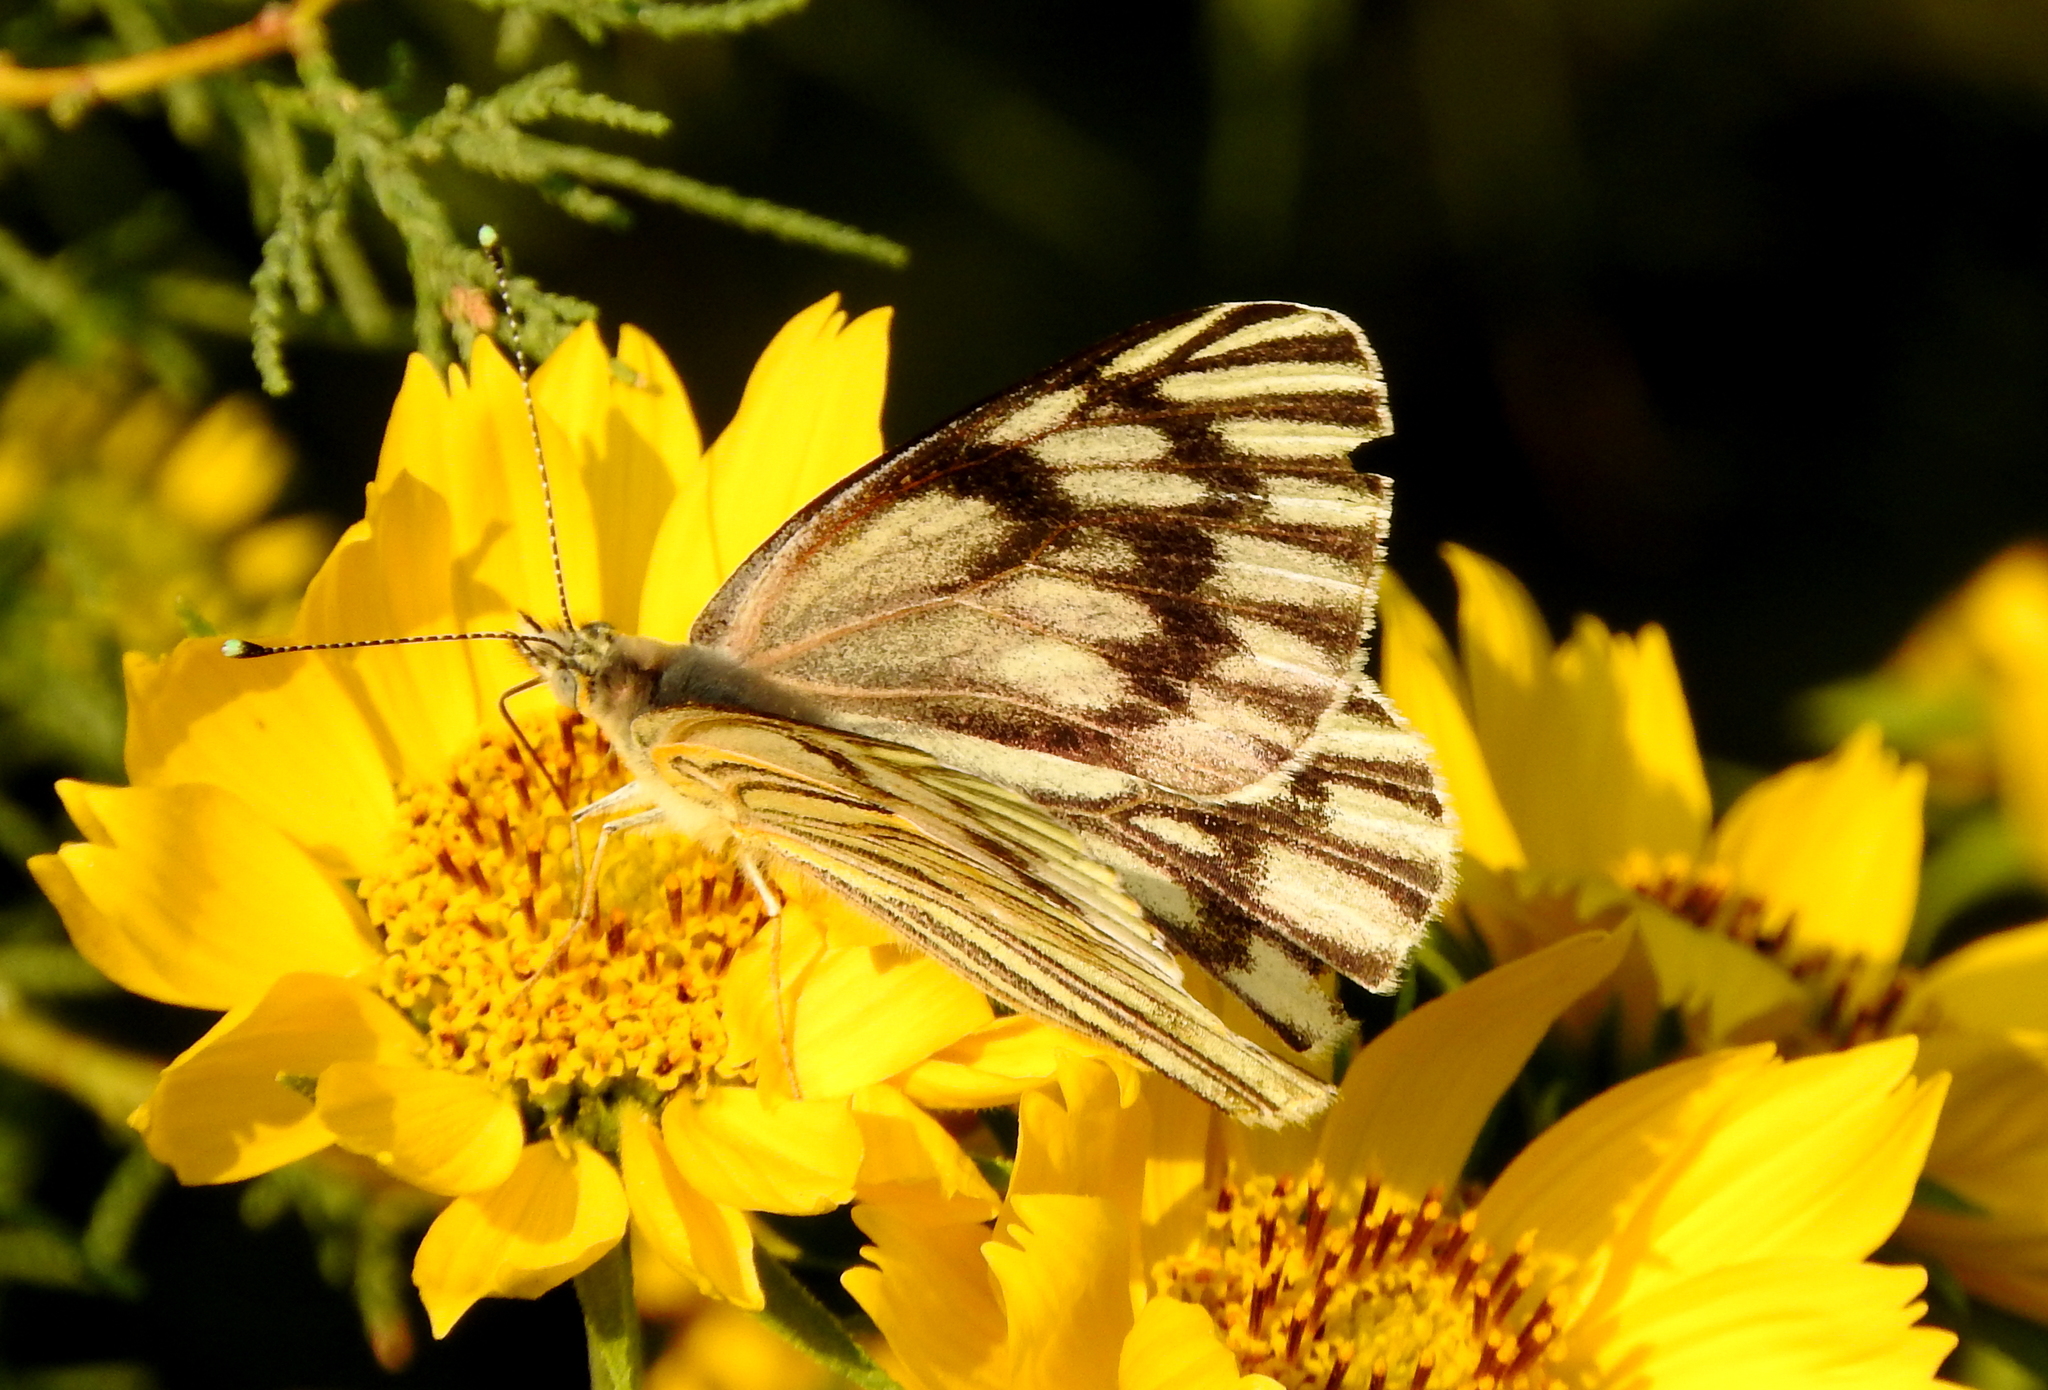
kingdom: Animalia
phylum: Arthropoda
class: Insecta
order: Lepidoptera
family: Pieridae
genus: Tatochila
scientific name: Tatochila mercedis
